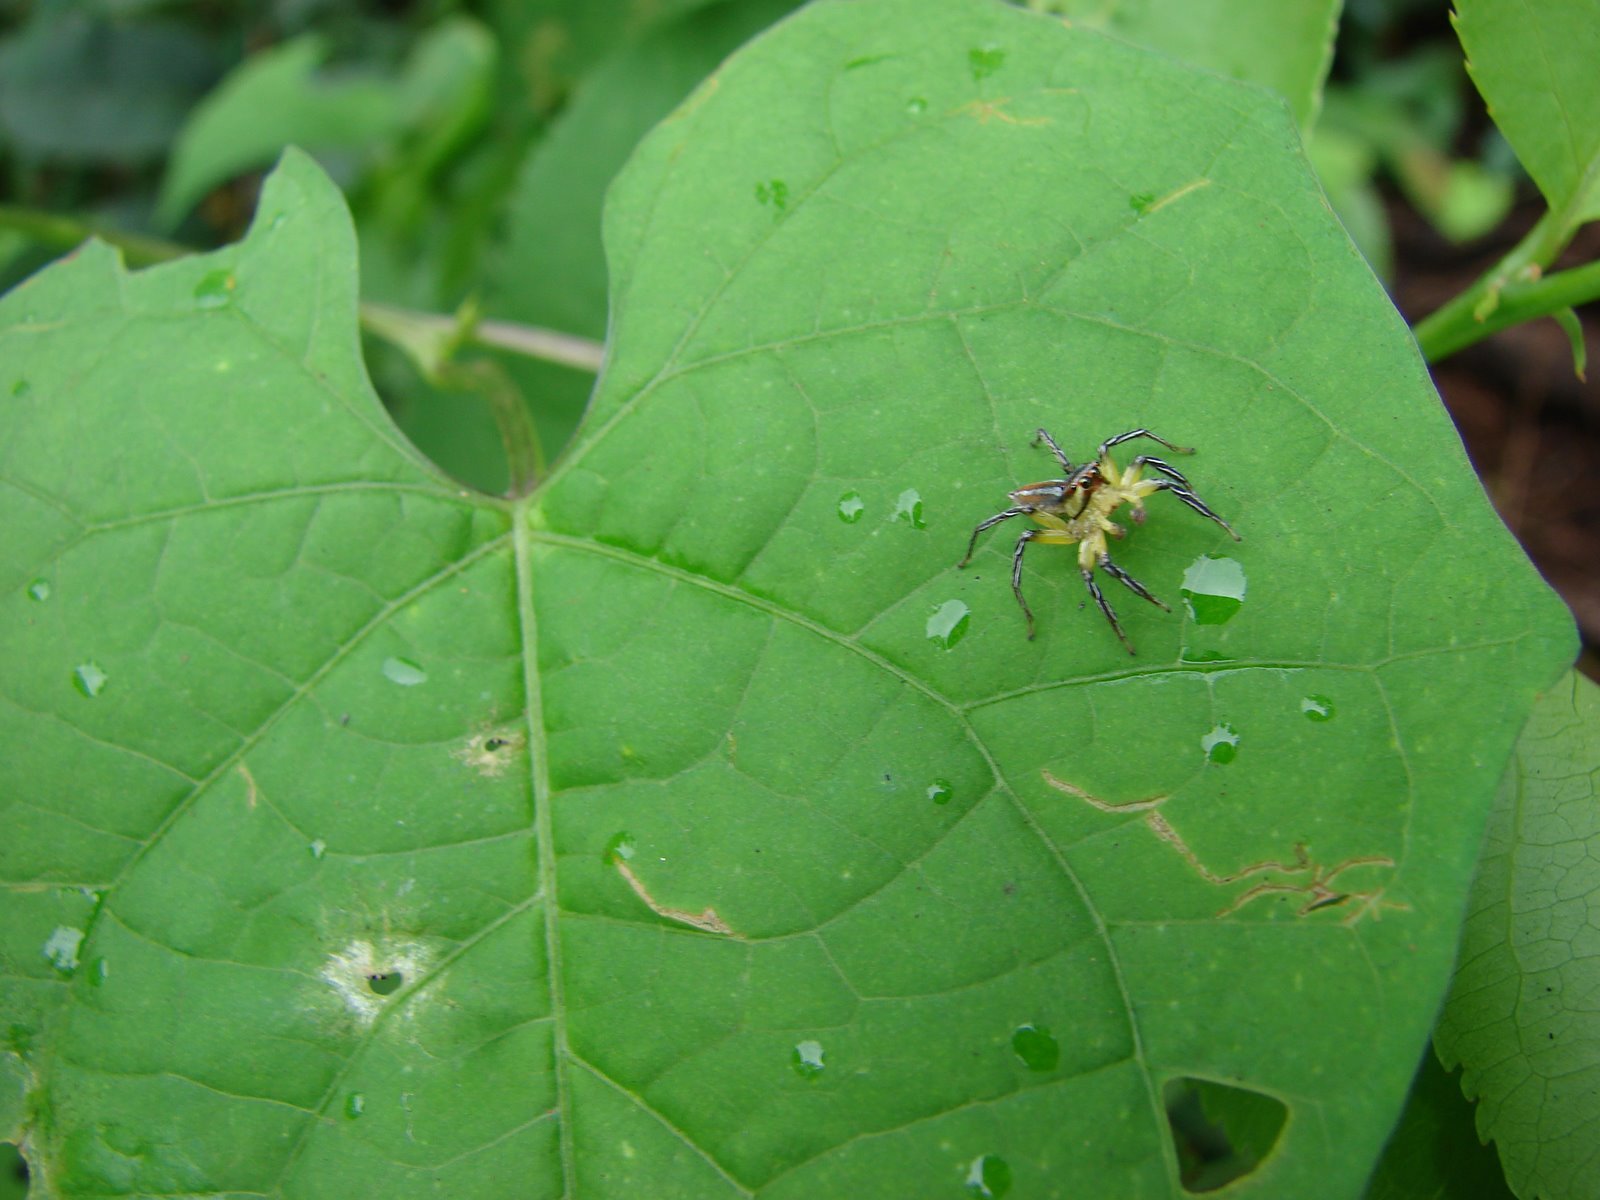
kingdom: Animalia
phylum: Arthropoda
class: Arachnida
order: Araneae
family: Salticidae
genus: Chira
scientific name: Chira simoni
